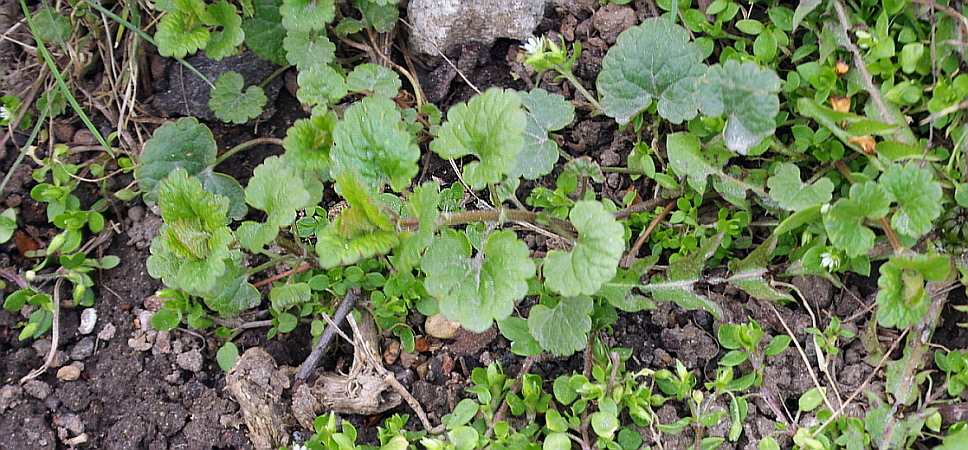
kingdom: Plantae
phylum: Tracheophyta
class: Magnoliopsida
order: Lamiales
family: Lamiaceae
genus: Glechoma
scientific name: Glechoma hederacea
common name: Ground ivy
